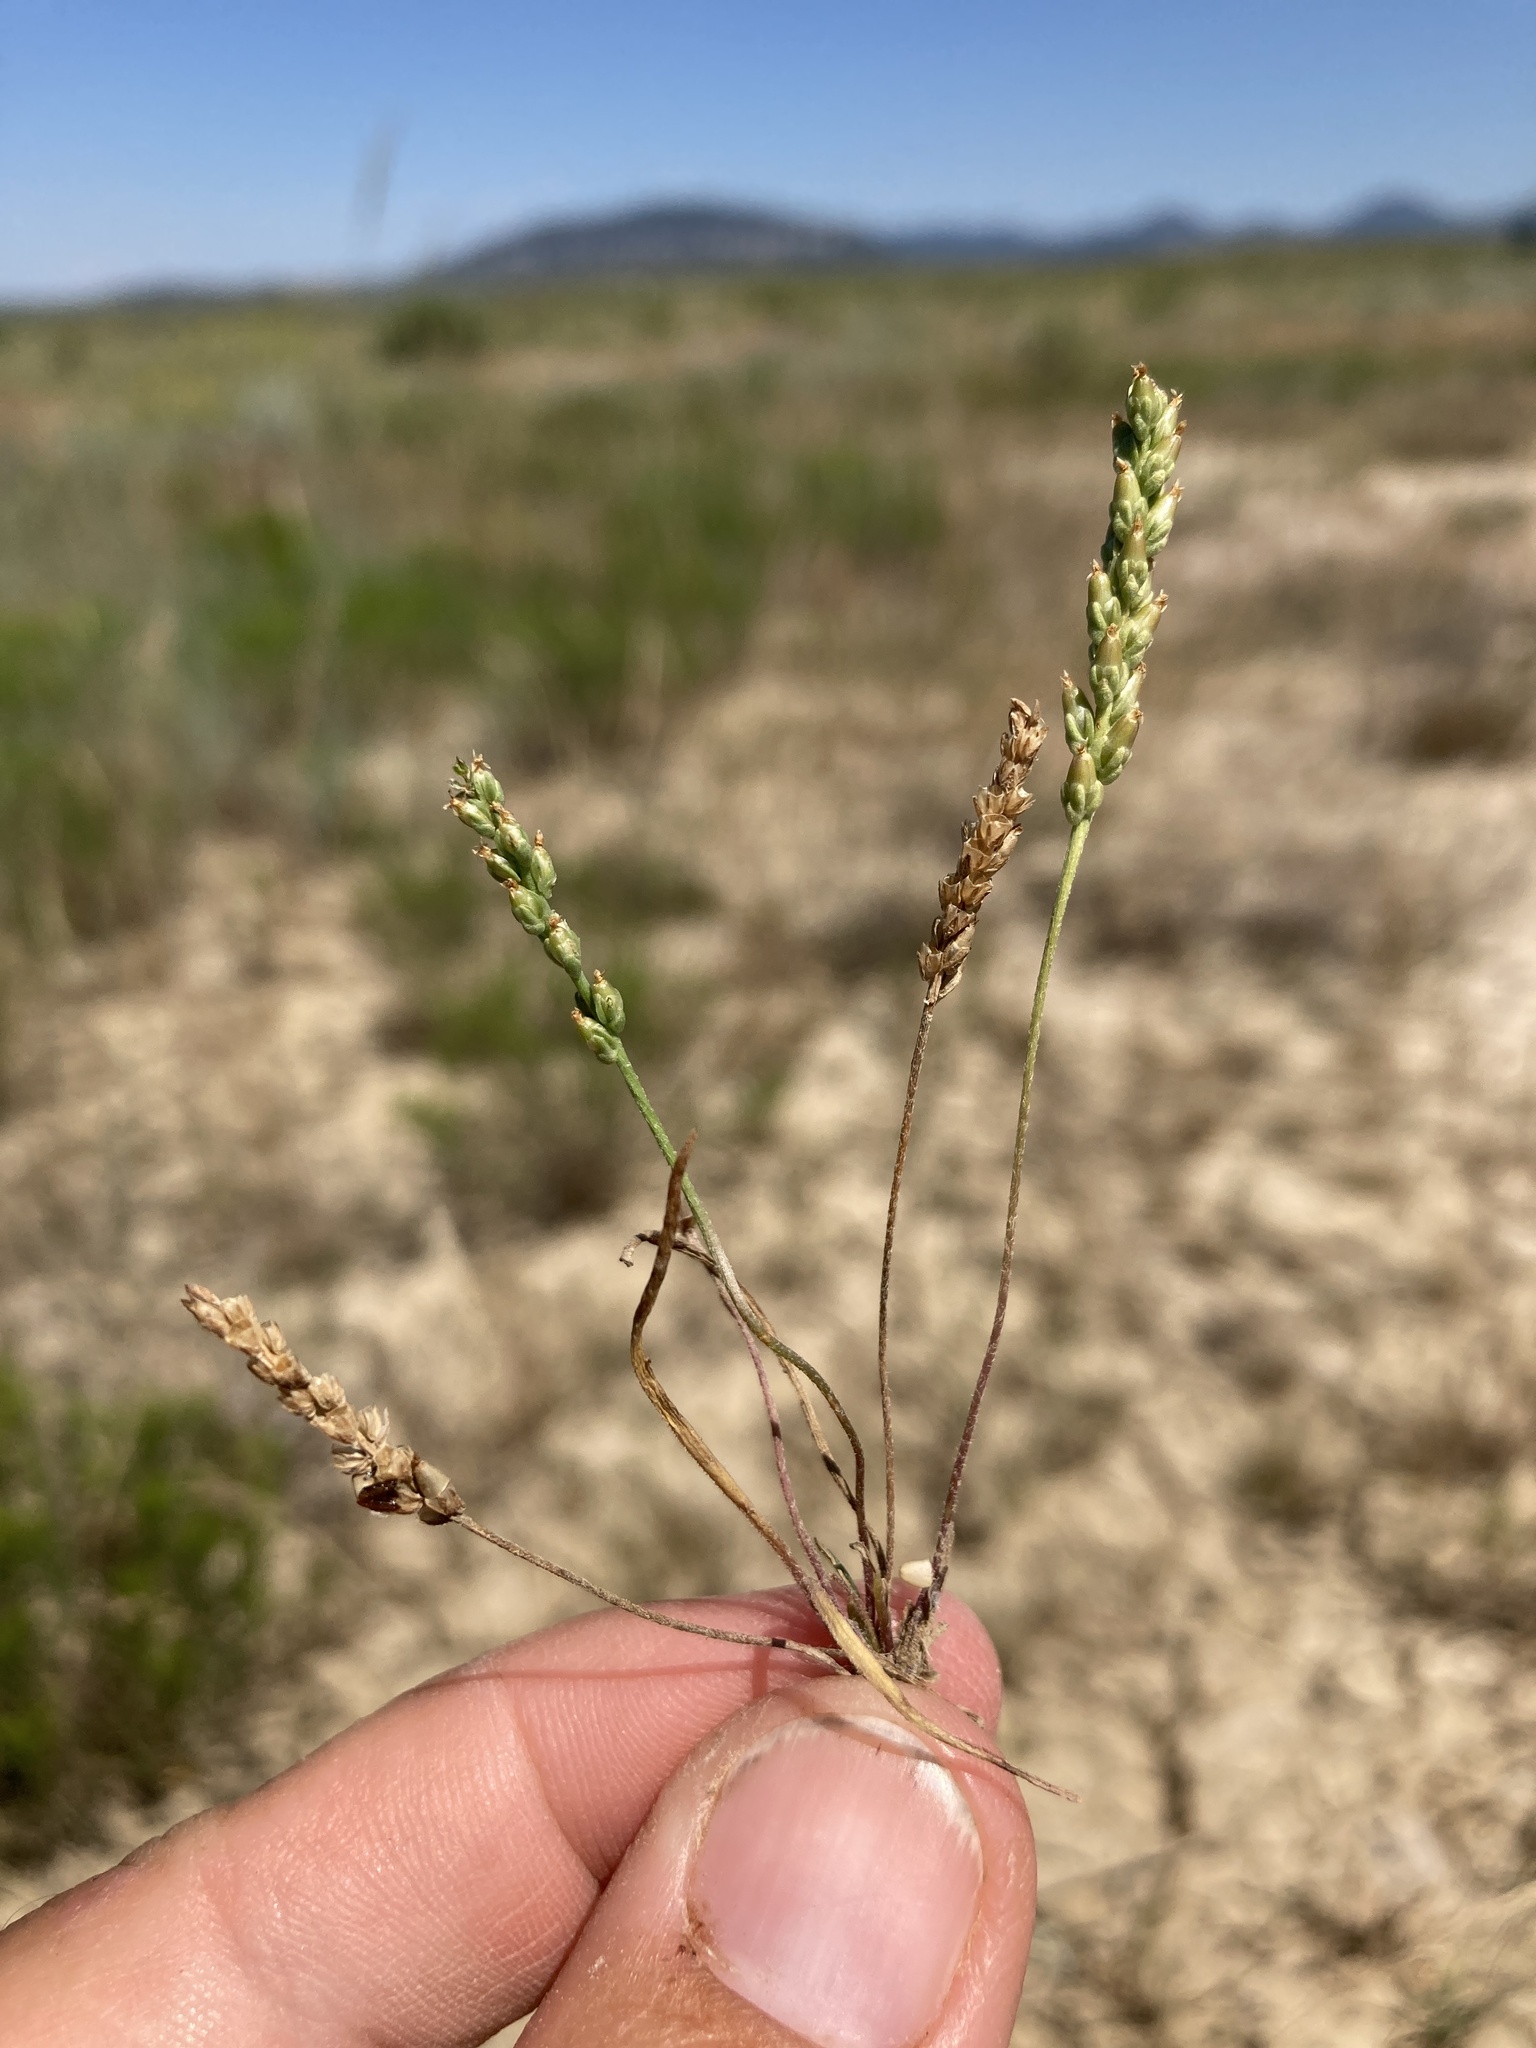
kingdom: Plantae
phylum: Tracheophyta
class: Magnoliopsida
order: Lamiales
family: Plantaginaceae
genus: Plantago
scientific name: Plantago elongata
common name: Linear-leaved plantain
